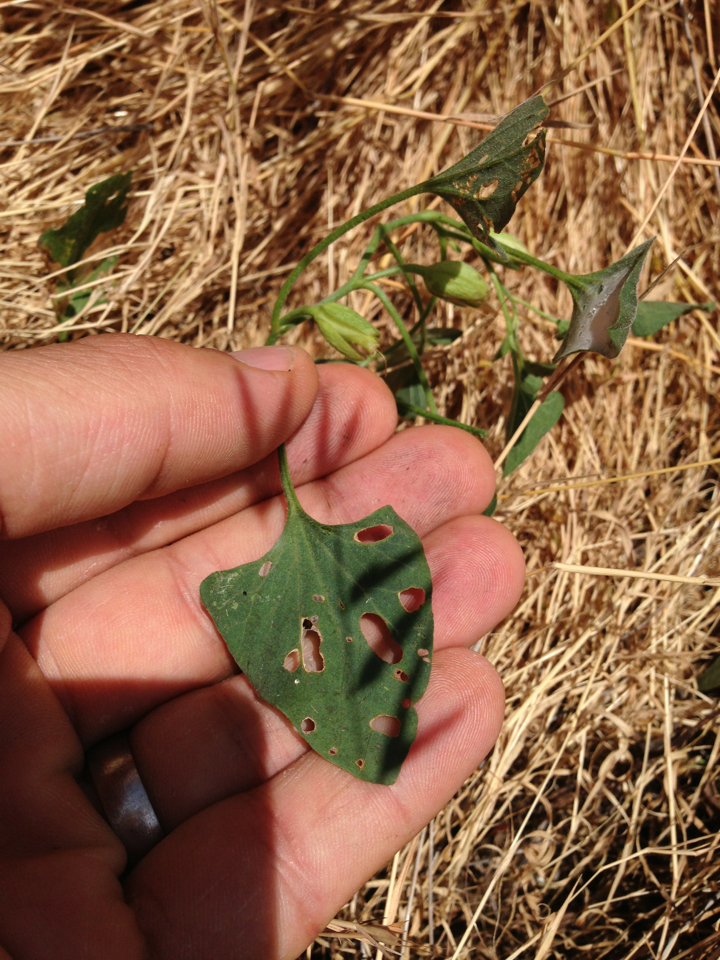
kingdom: Plantae
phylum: Tracheophyta
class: Magnoliopsida
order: Solanales
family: Convolvulaceae
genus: Calystegia
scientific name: Calystegia subacaulis
